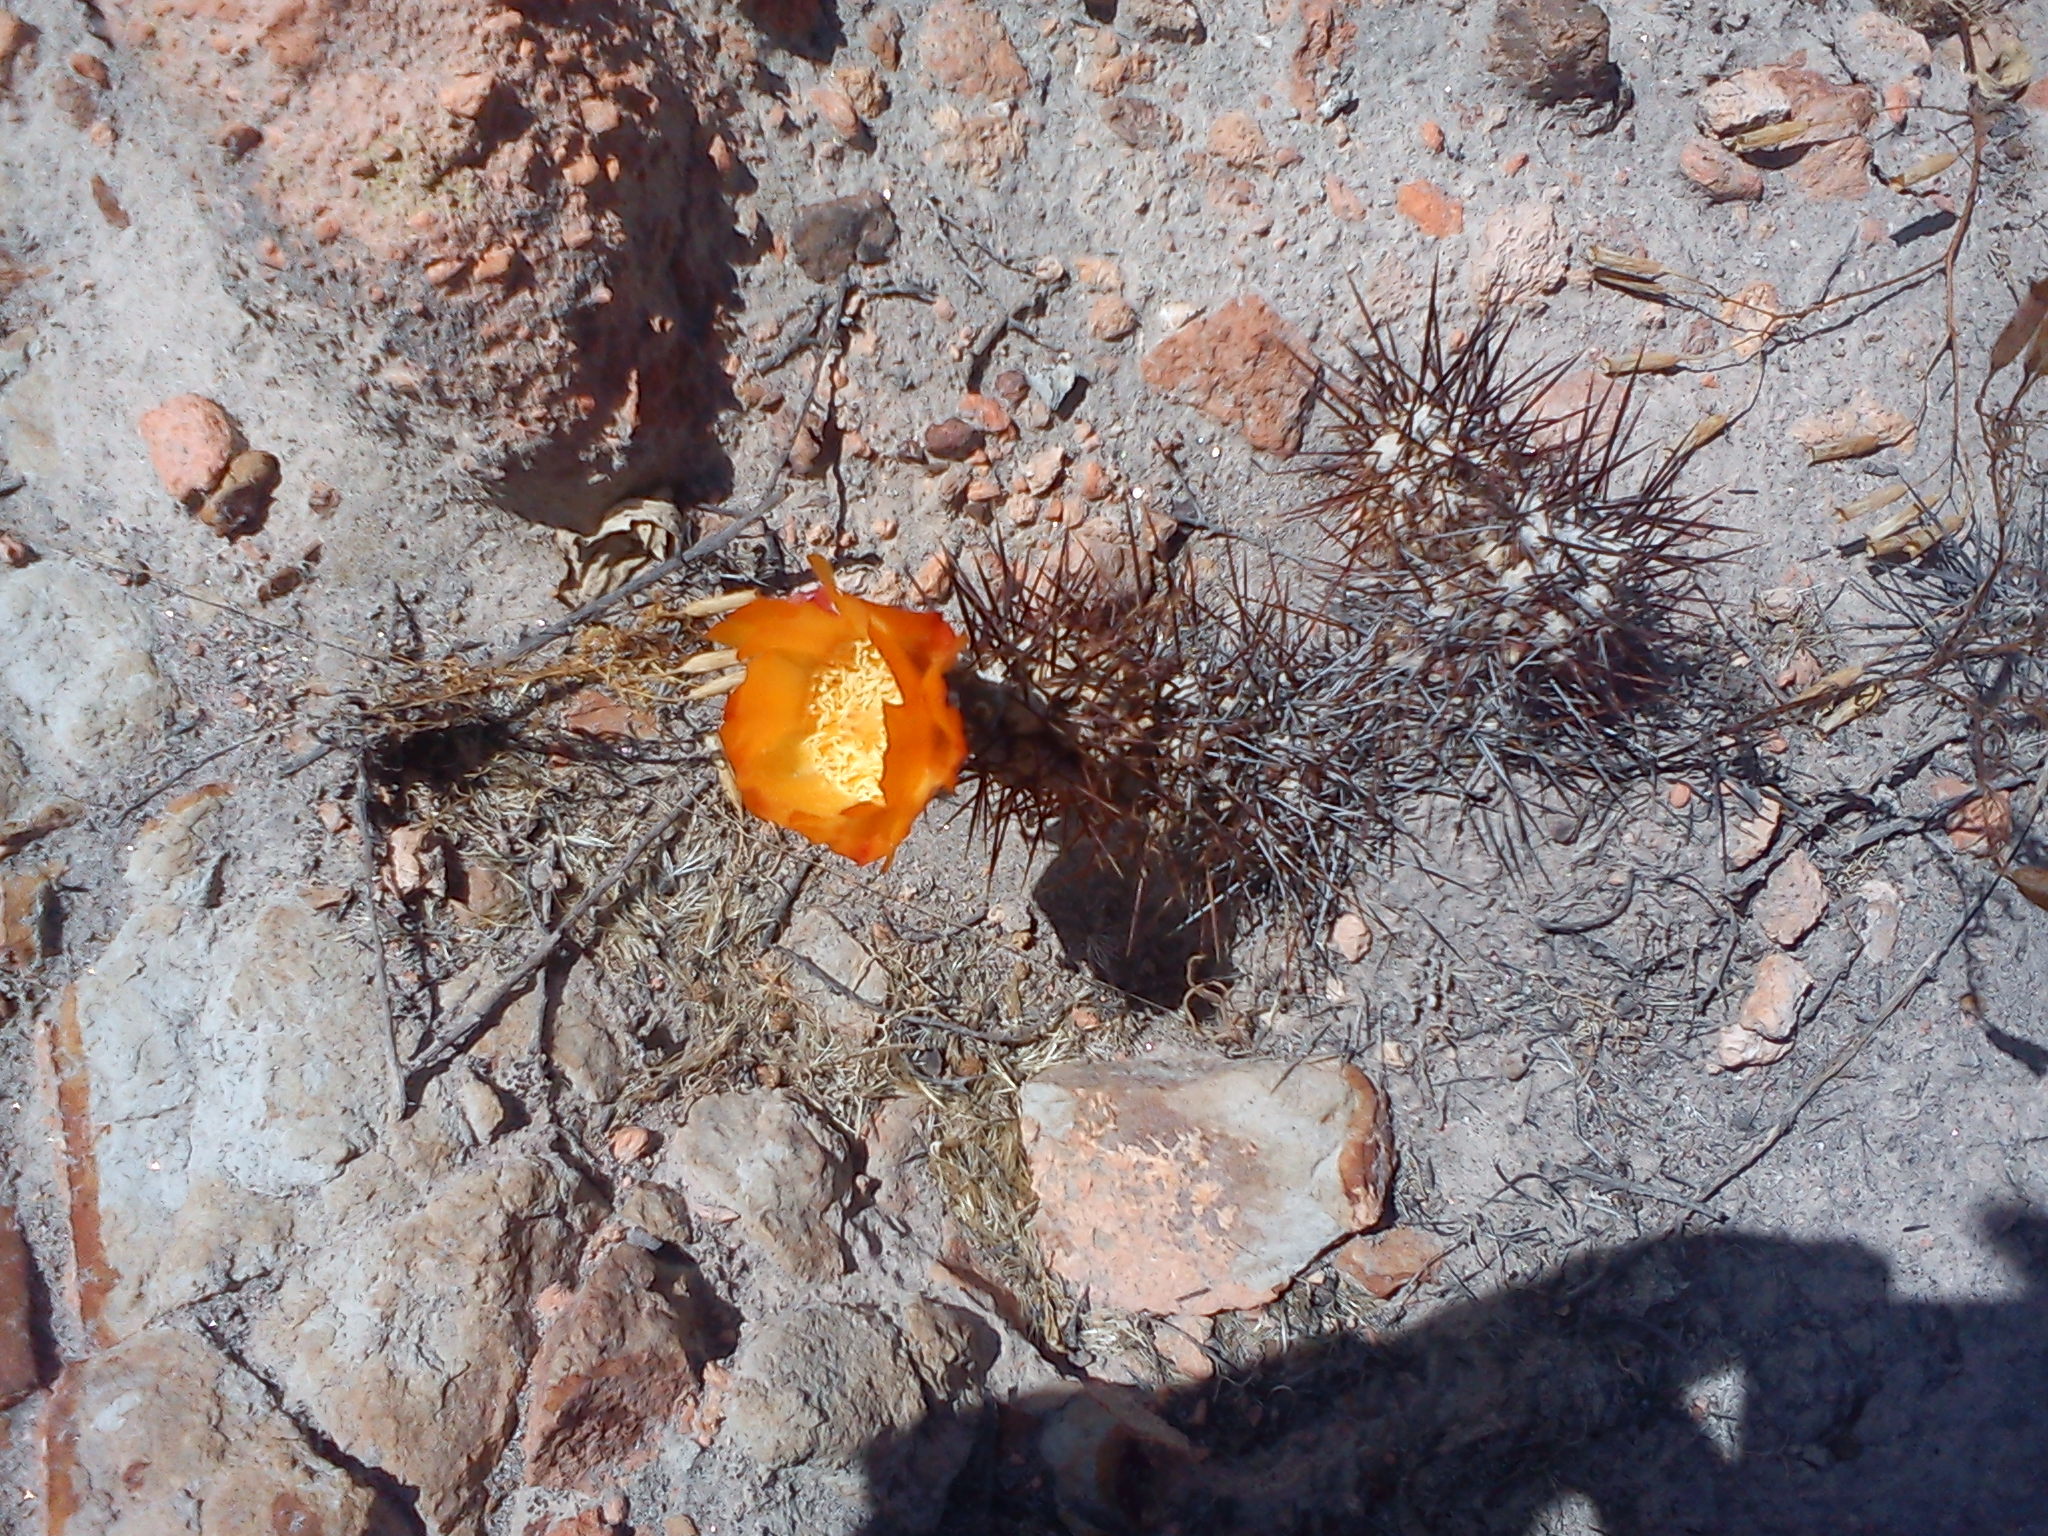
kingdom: Plantae
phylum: Tracheophyta
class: Magnoliopsida
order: Caryophyllales
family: Cactaceae
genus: Cumulopuntia
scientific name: Cumulopuntia leucophaea
